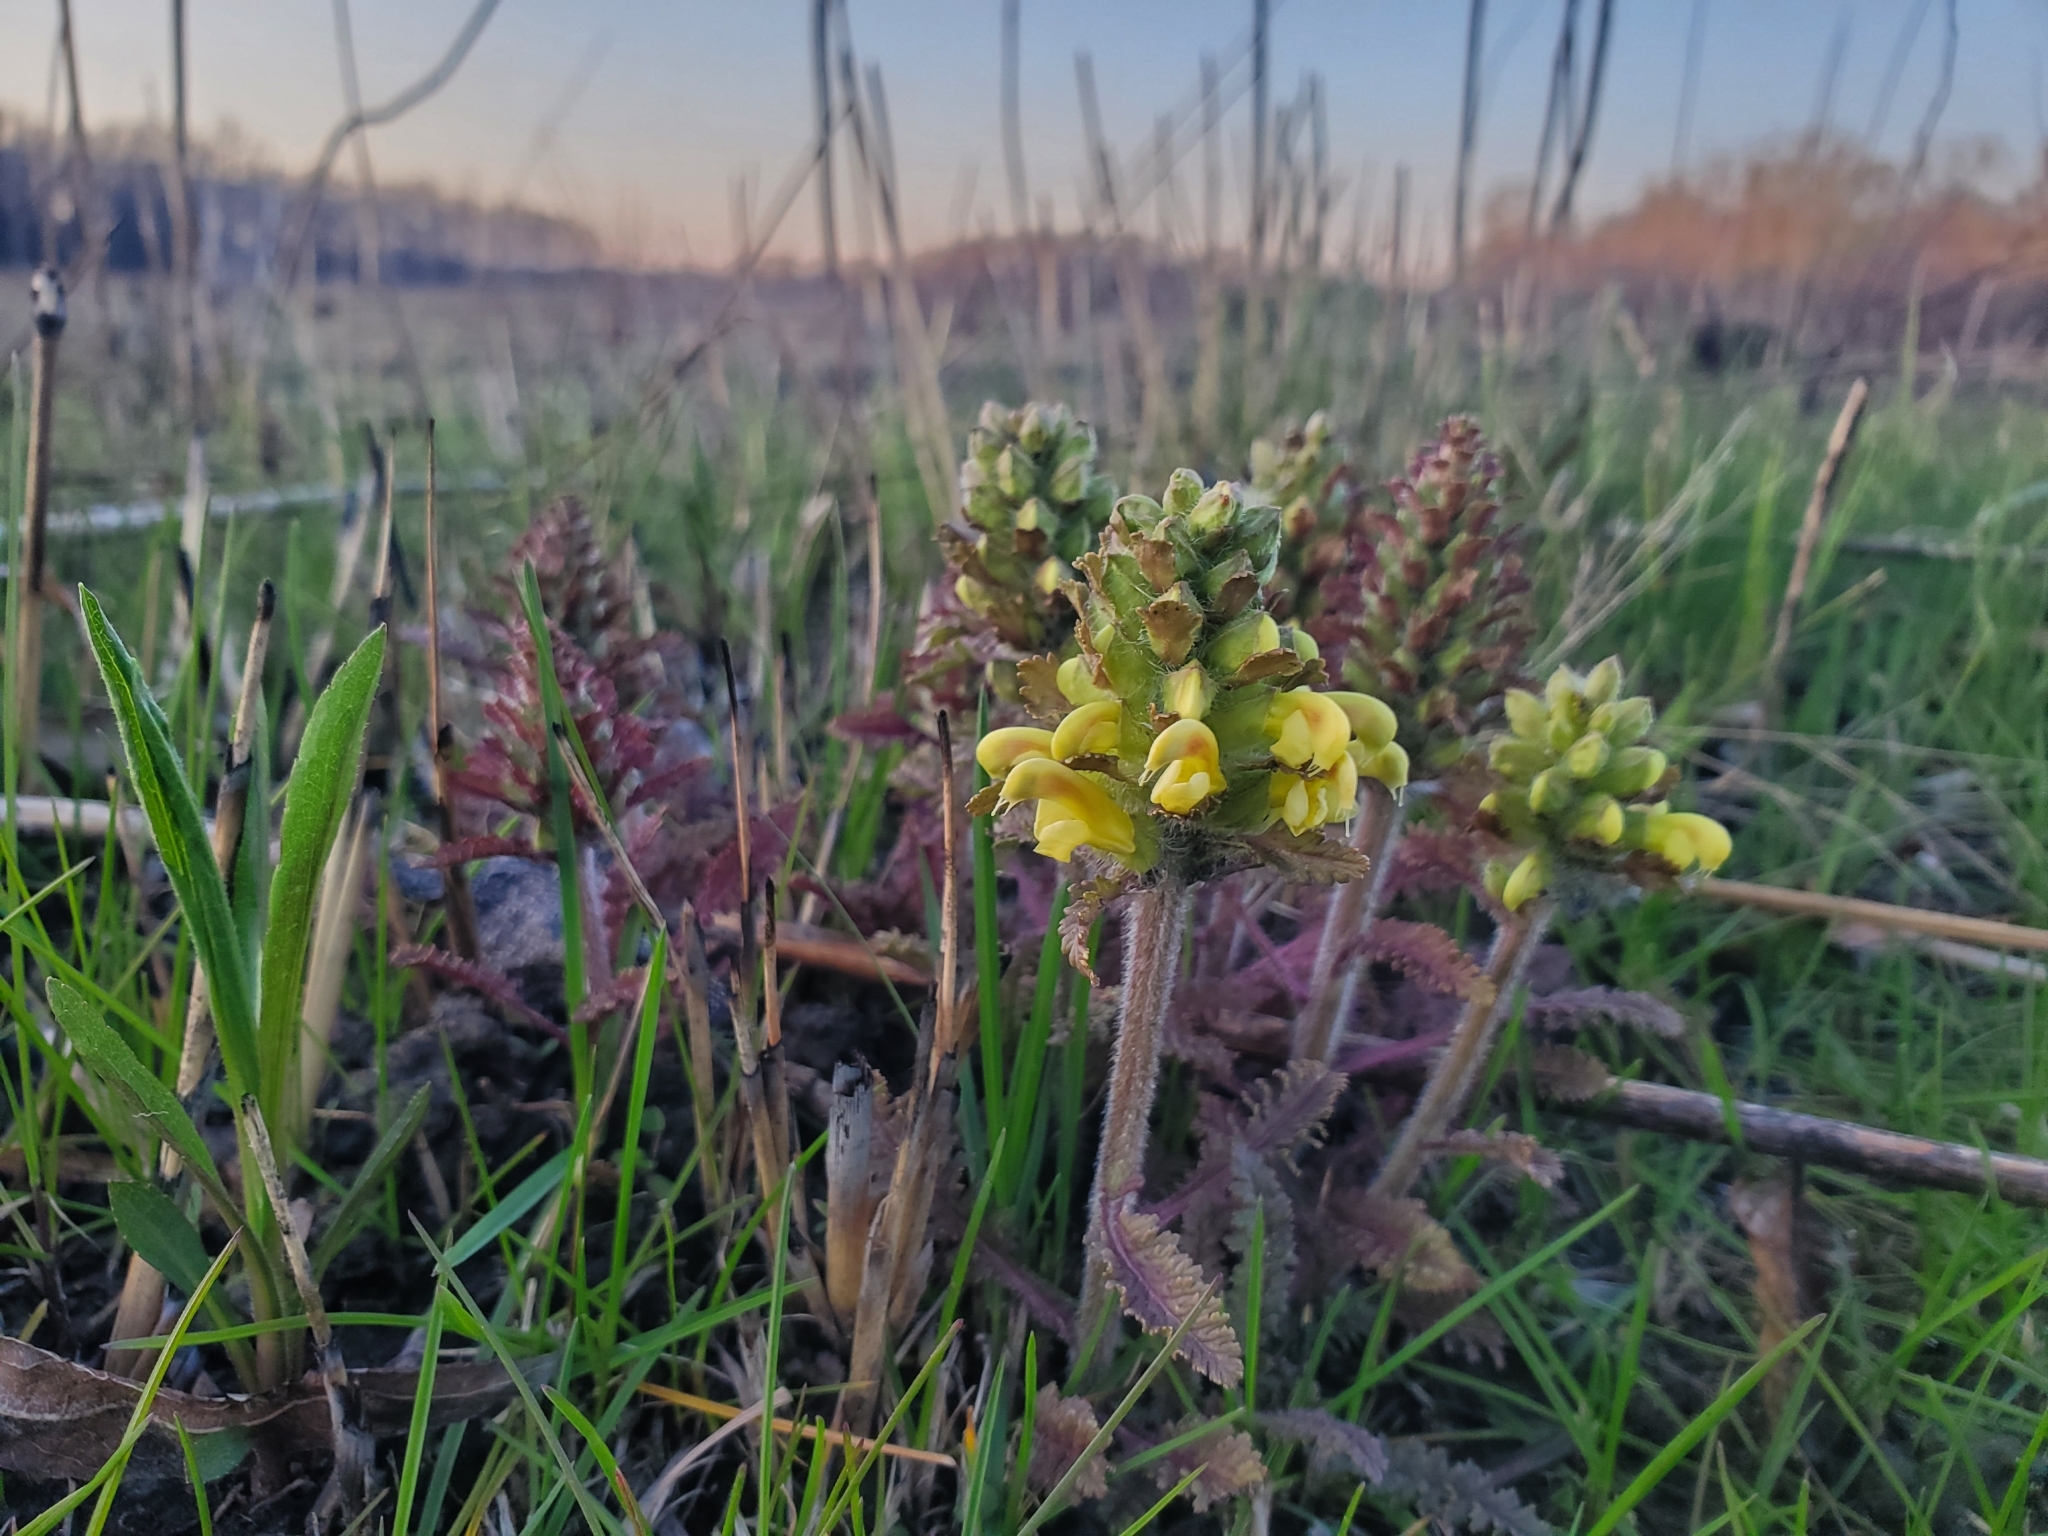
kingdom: Plantae
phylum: Tracheophyta
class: Magnoliopsida
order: Lamiales
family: Orobanchaceae
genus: Pedicularis
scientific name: Pedicularis canadensis
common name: Early lousewort
